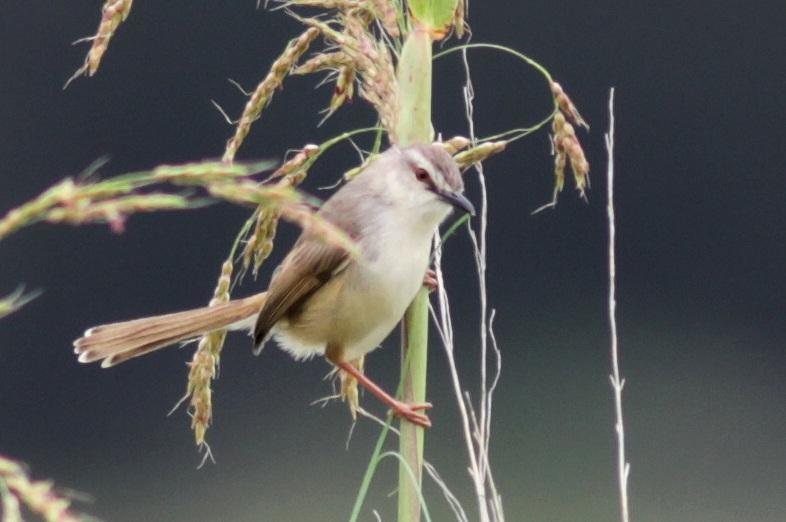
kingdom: Animalia
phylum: Chordata
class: Aves
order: Passeriformes
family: Cisticolidae
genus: Prinia
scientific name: Prinia subflava
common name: Tawny-flanked prinia
